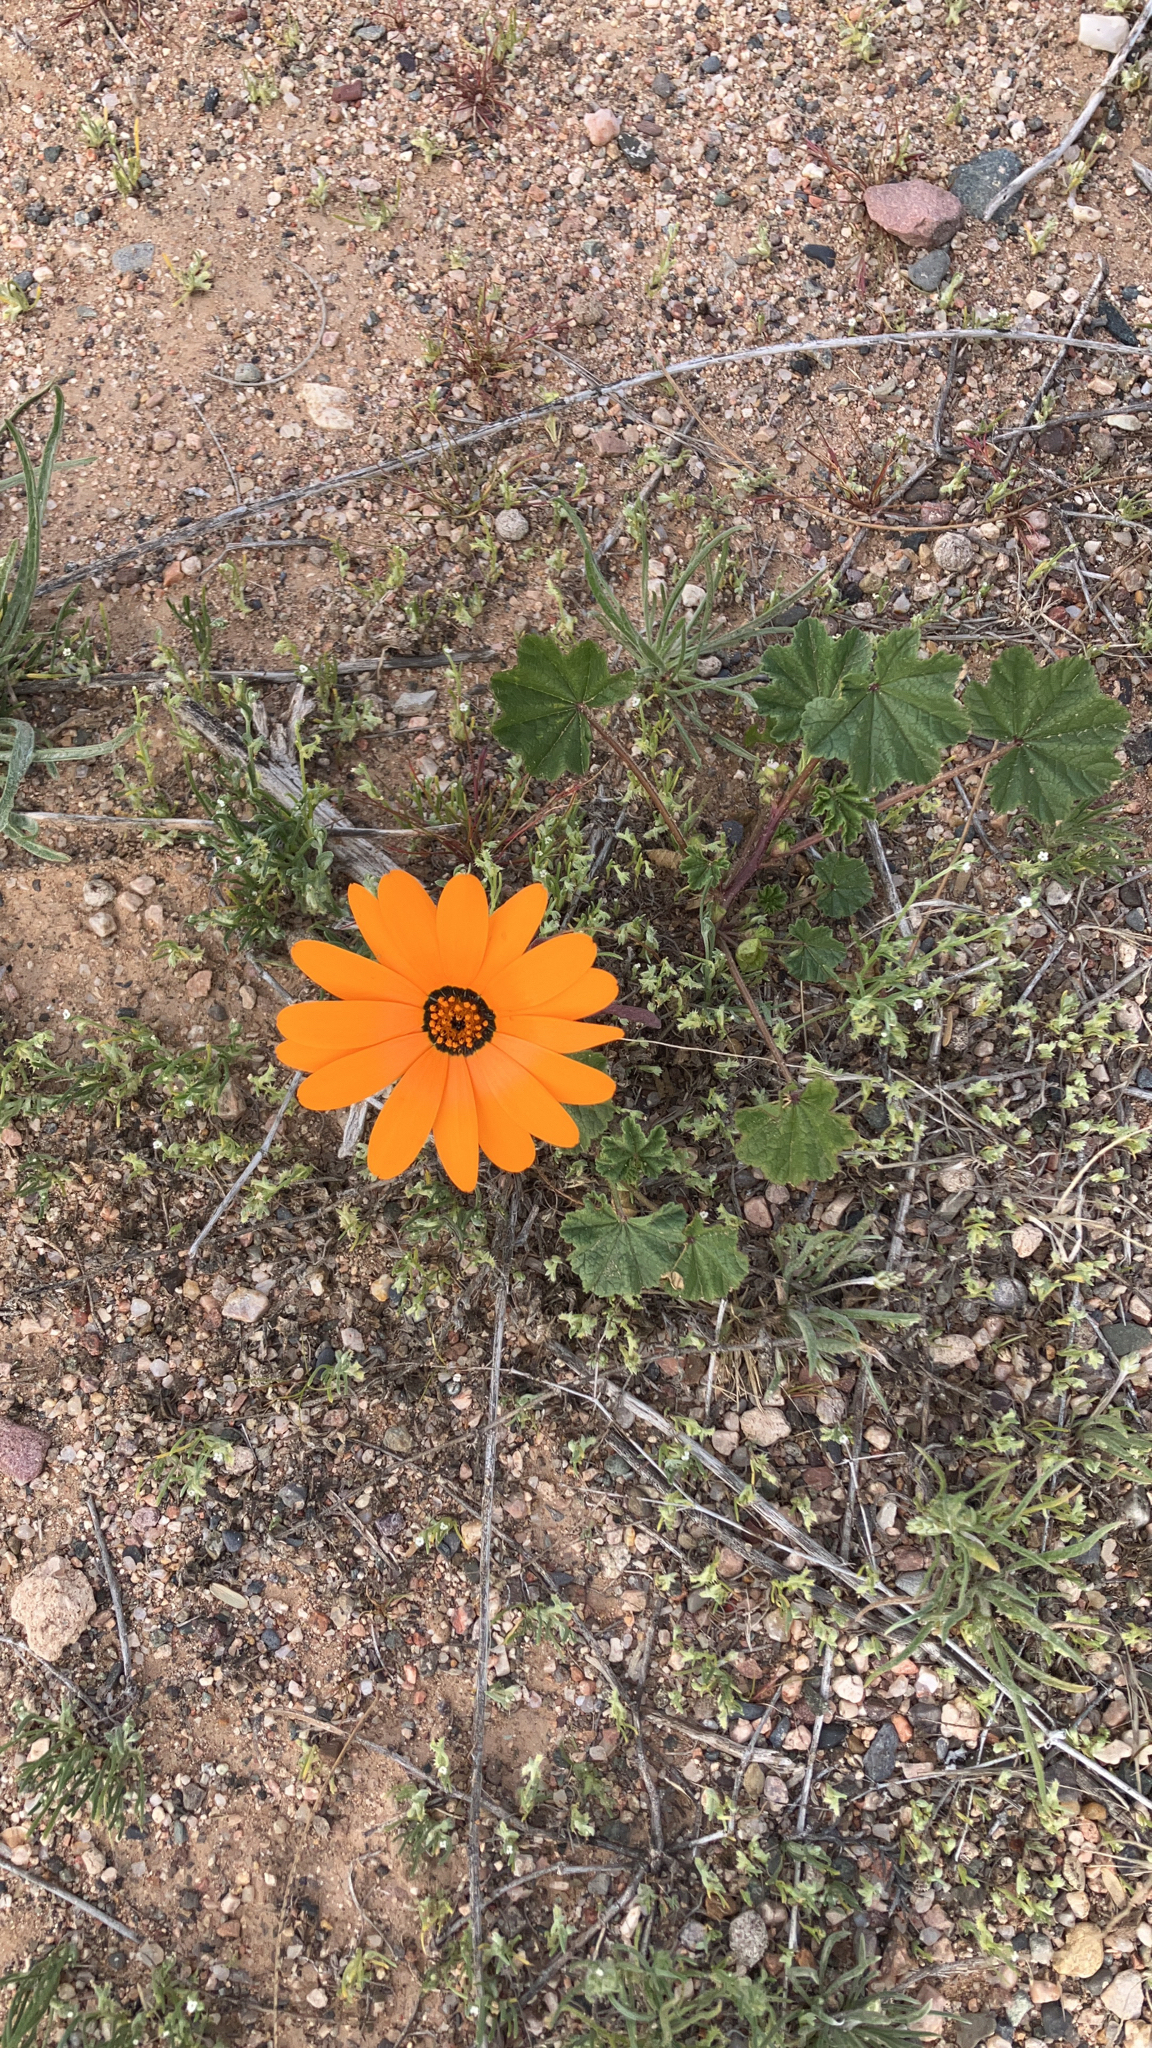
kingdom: Plantae
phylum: Tracheophyta
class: Magnoliopsida
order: Asterales
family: Asteraceae
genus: Dimorphotheca
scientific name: Dimorphotheca sinuata
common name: Glandular cape marigold
